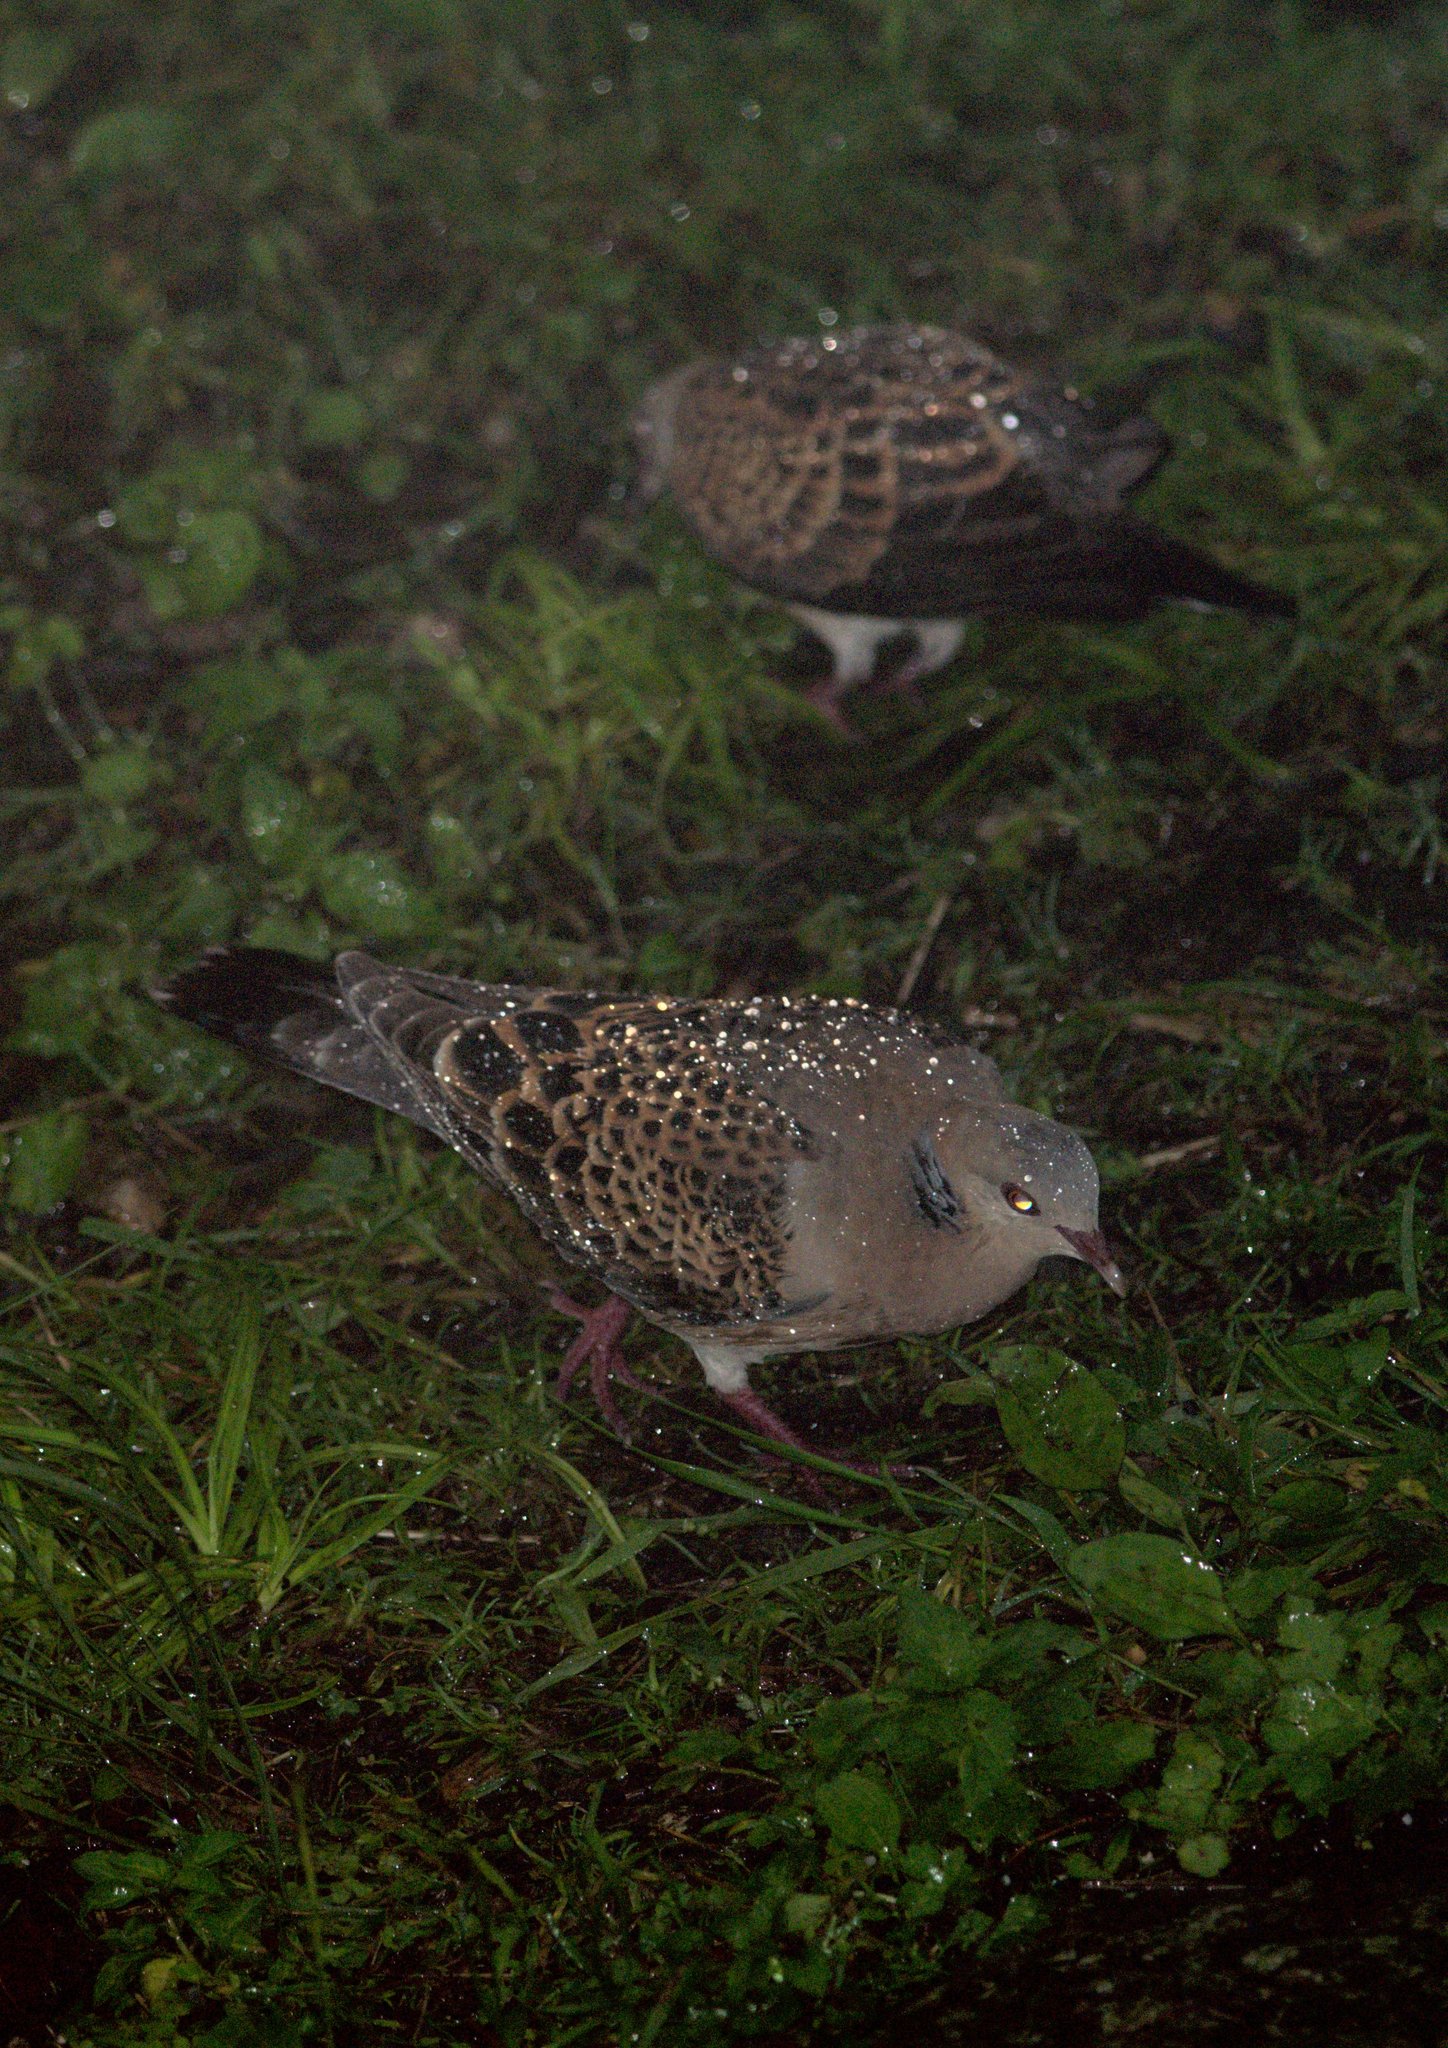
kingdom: Animalia
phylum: Chordata
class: Aves
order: Columbiformes
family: Columbidae
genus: Streptopelia
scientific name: Streptopelia orientalis
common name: Oriental turtle dove
